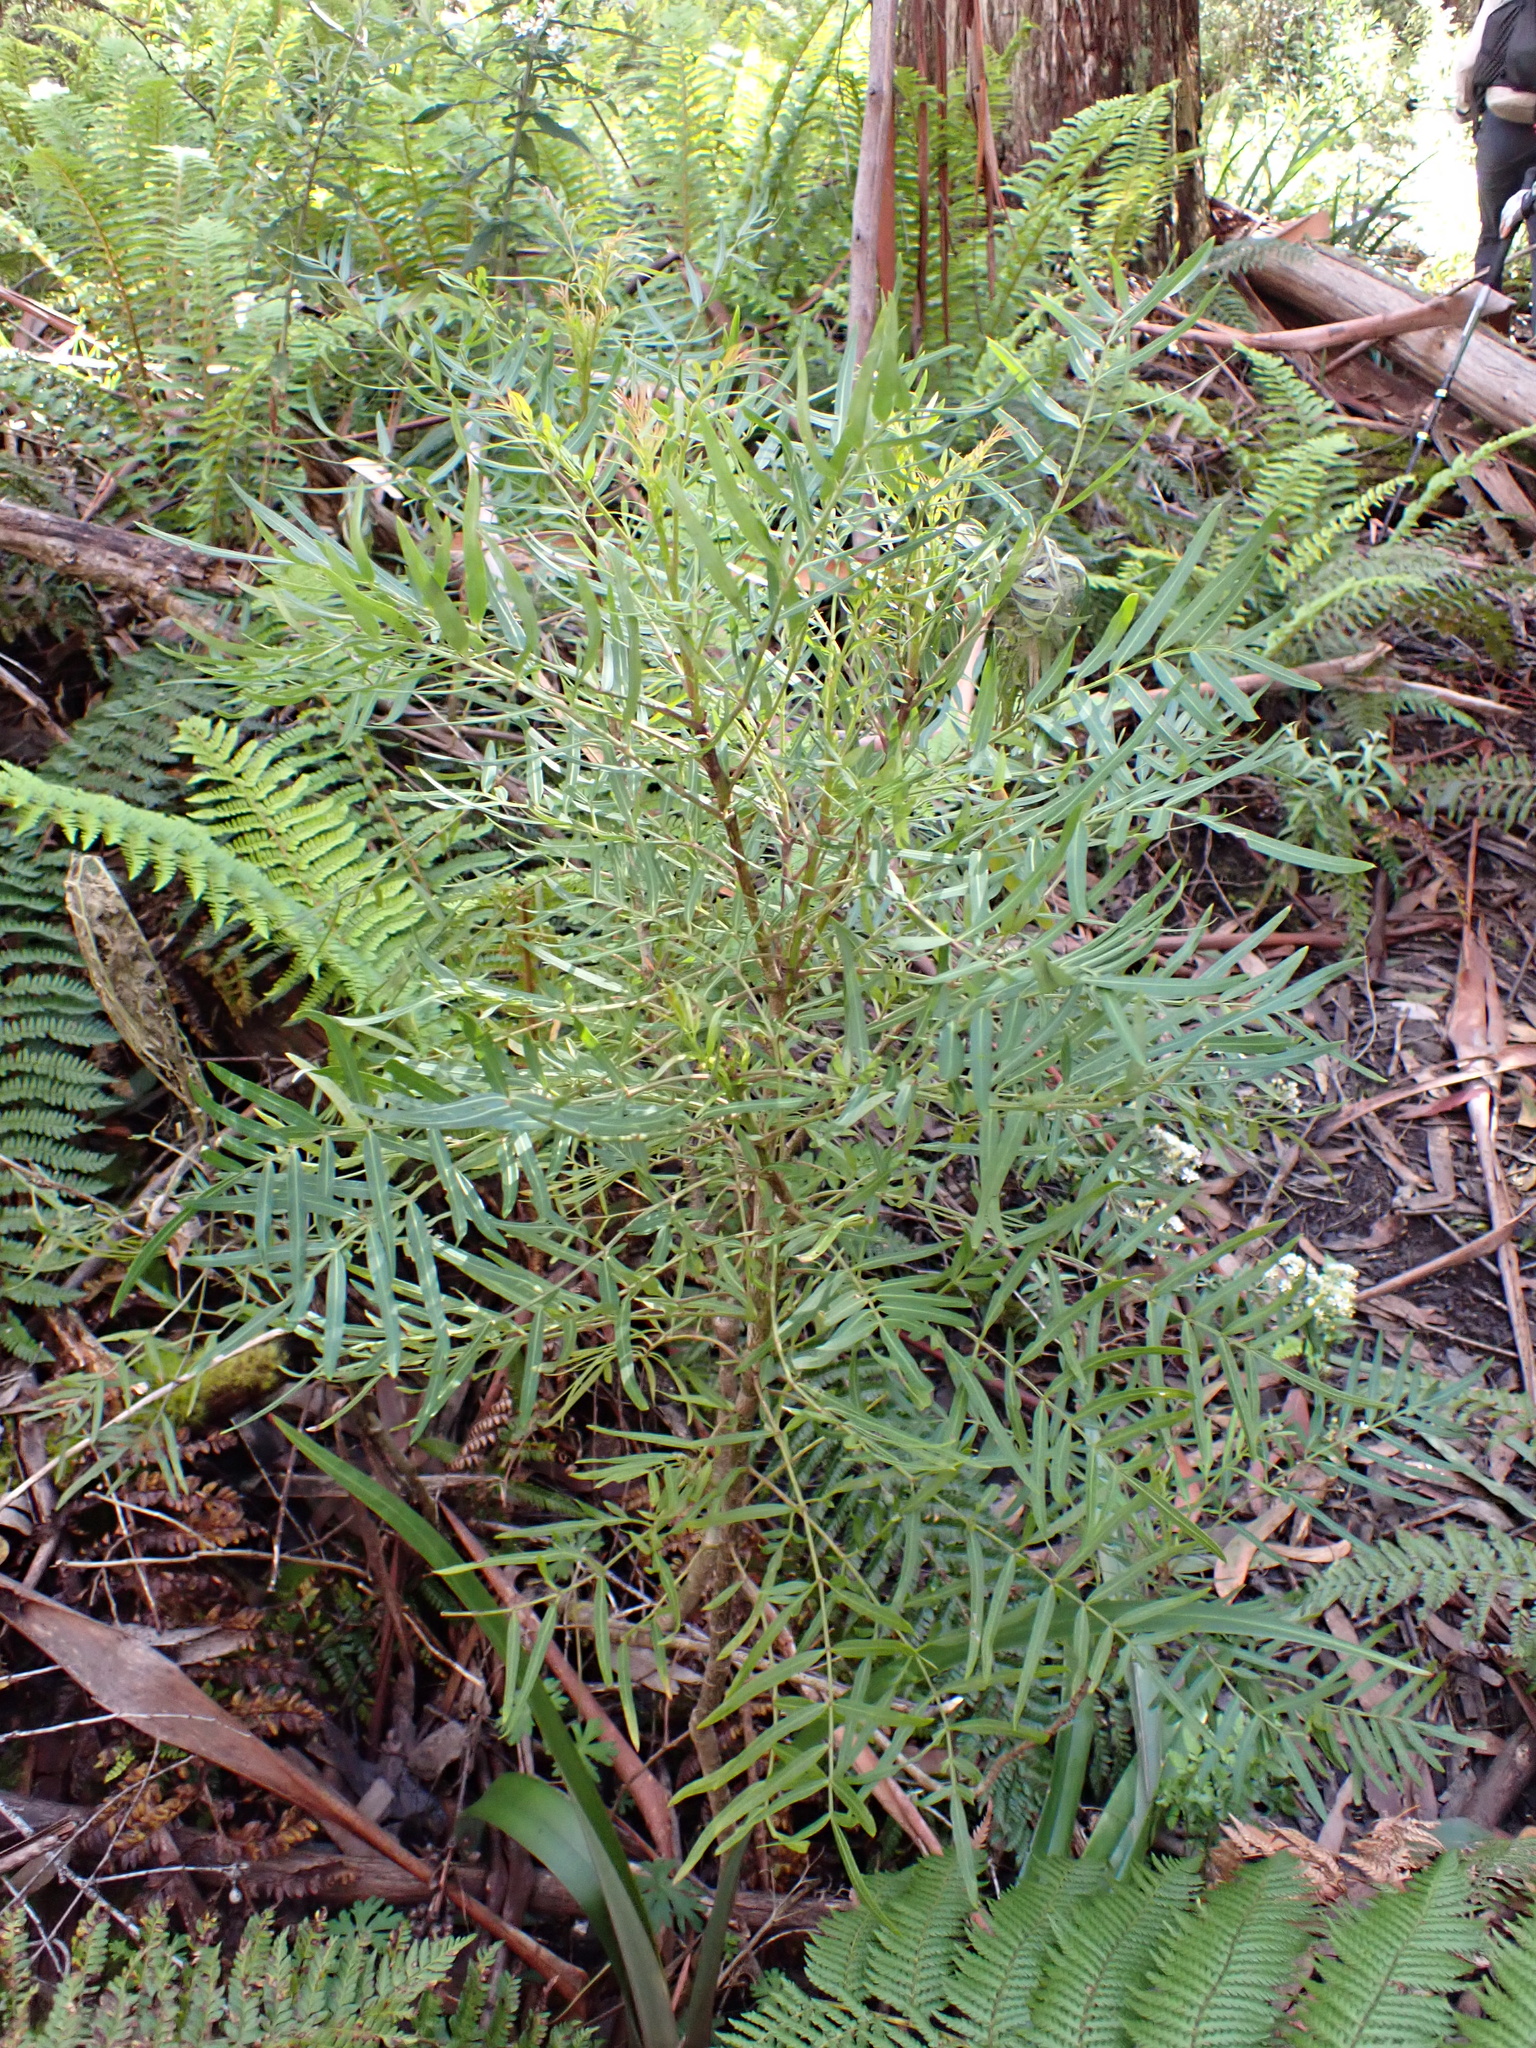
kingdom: Plantae
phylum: Tracheophyta
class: Magnoliopsida
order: Apiales
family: Araliaceae
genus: Polyscias
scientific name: Polyscias sambucifolia
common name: Elderberry-ash
